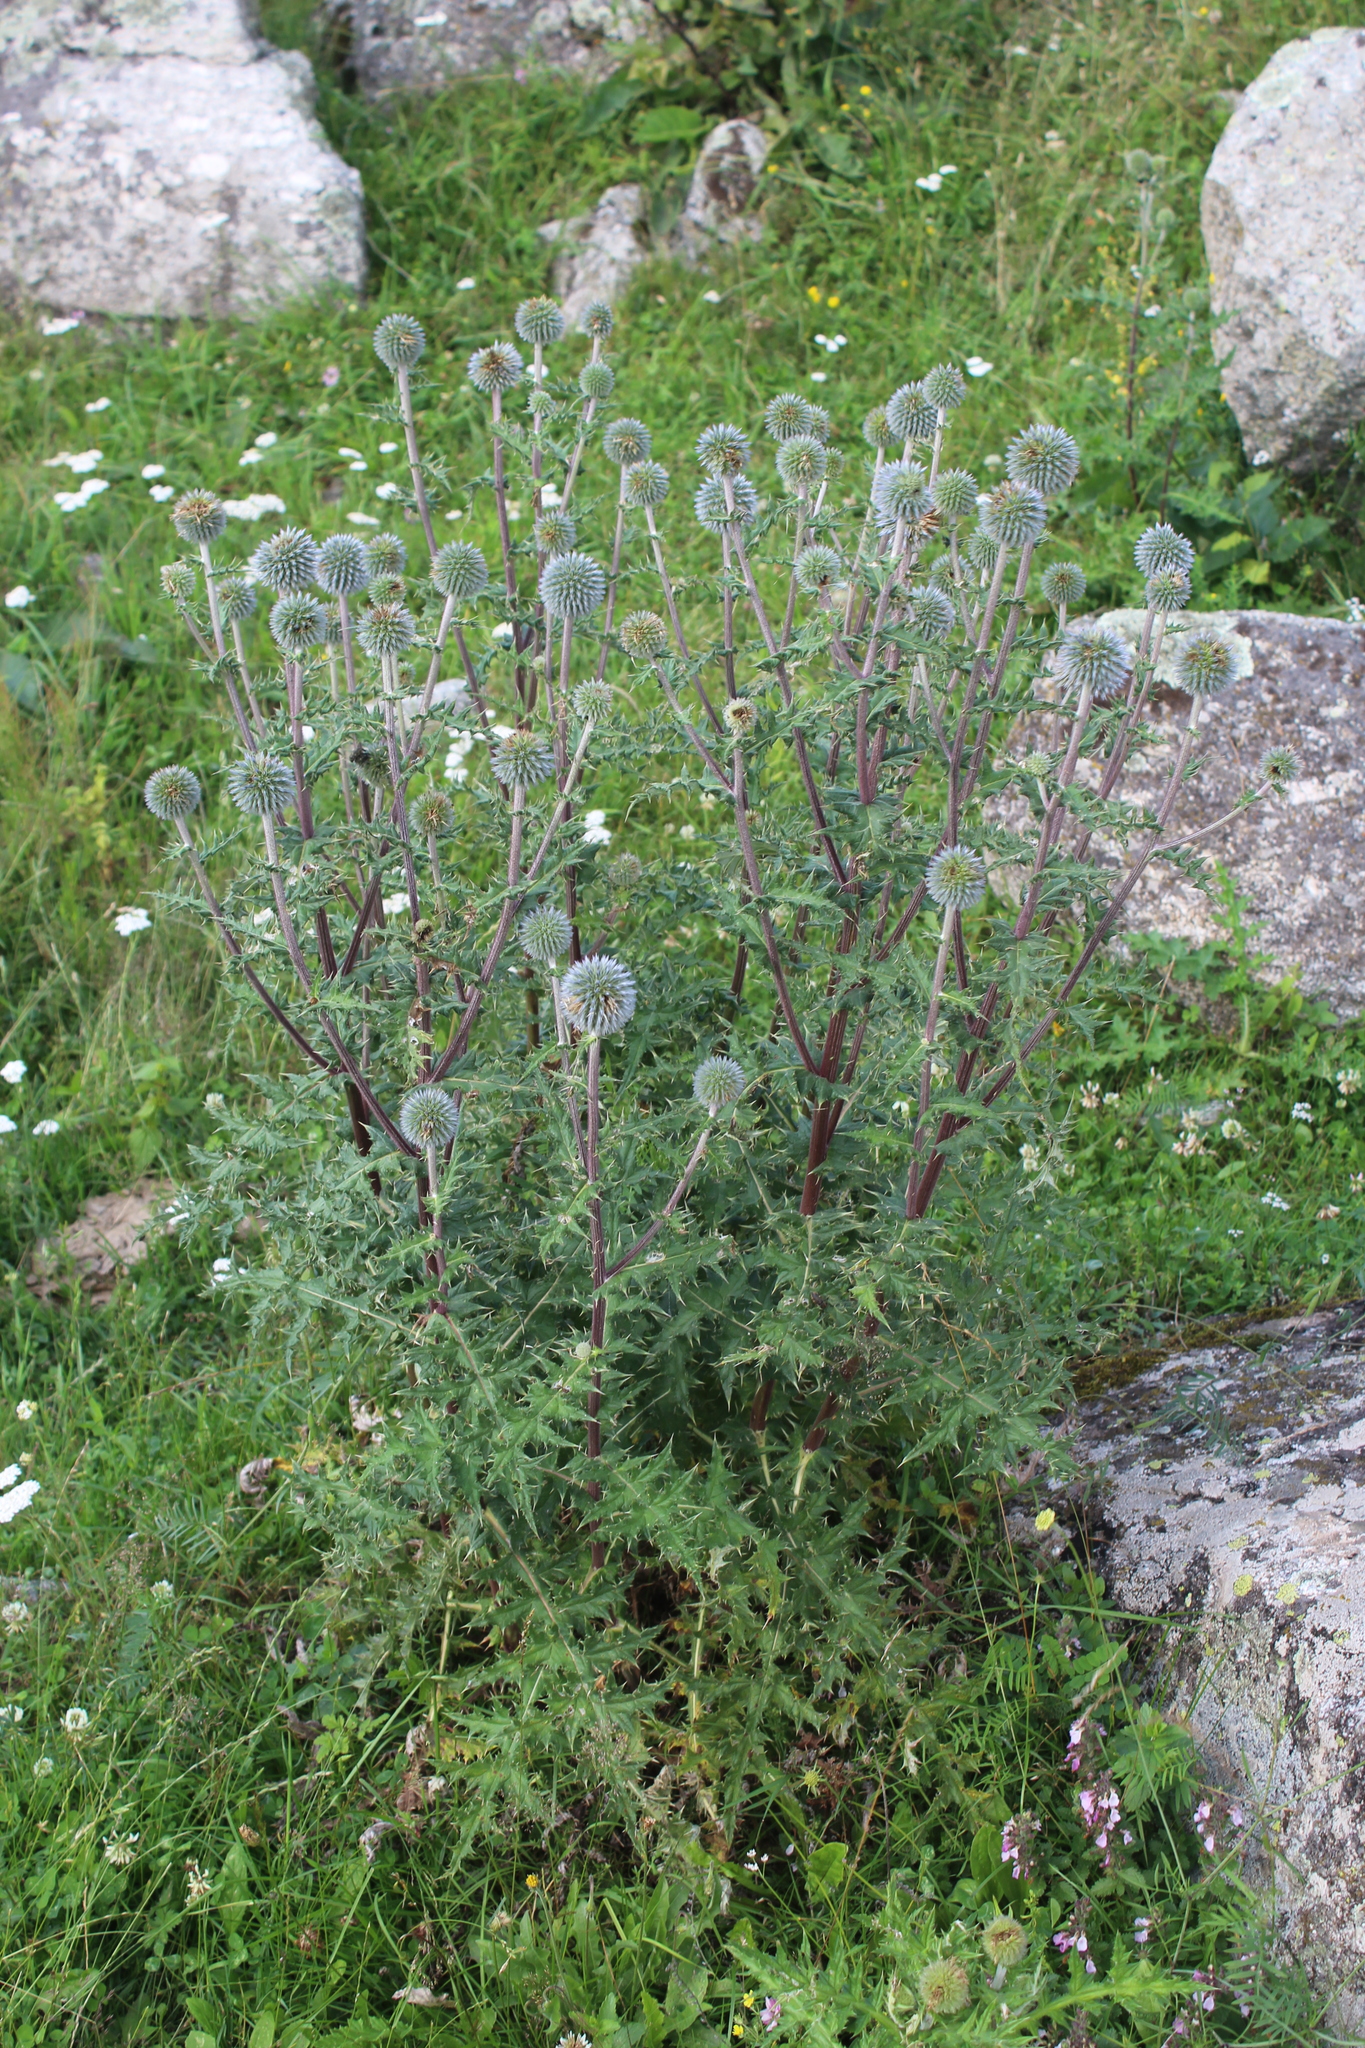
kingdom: Plantae
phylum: Tracheophyta
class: Magnoliopsida
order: Asterales
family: Asteraceae
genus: Echinops
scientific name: Echinops sphaerocephalus
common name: Glandular globe-thistle
